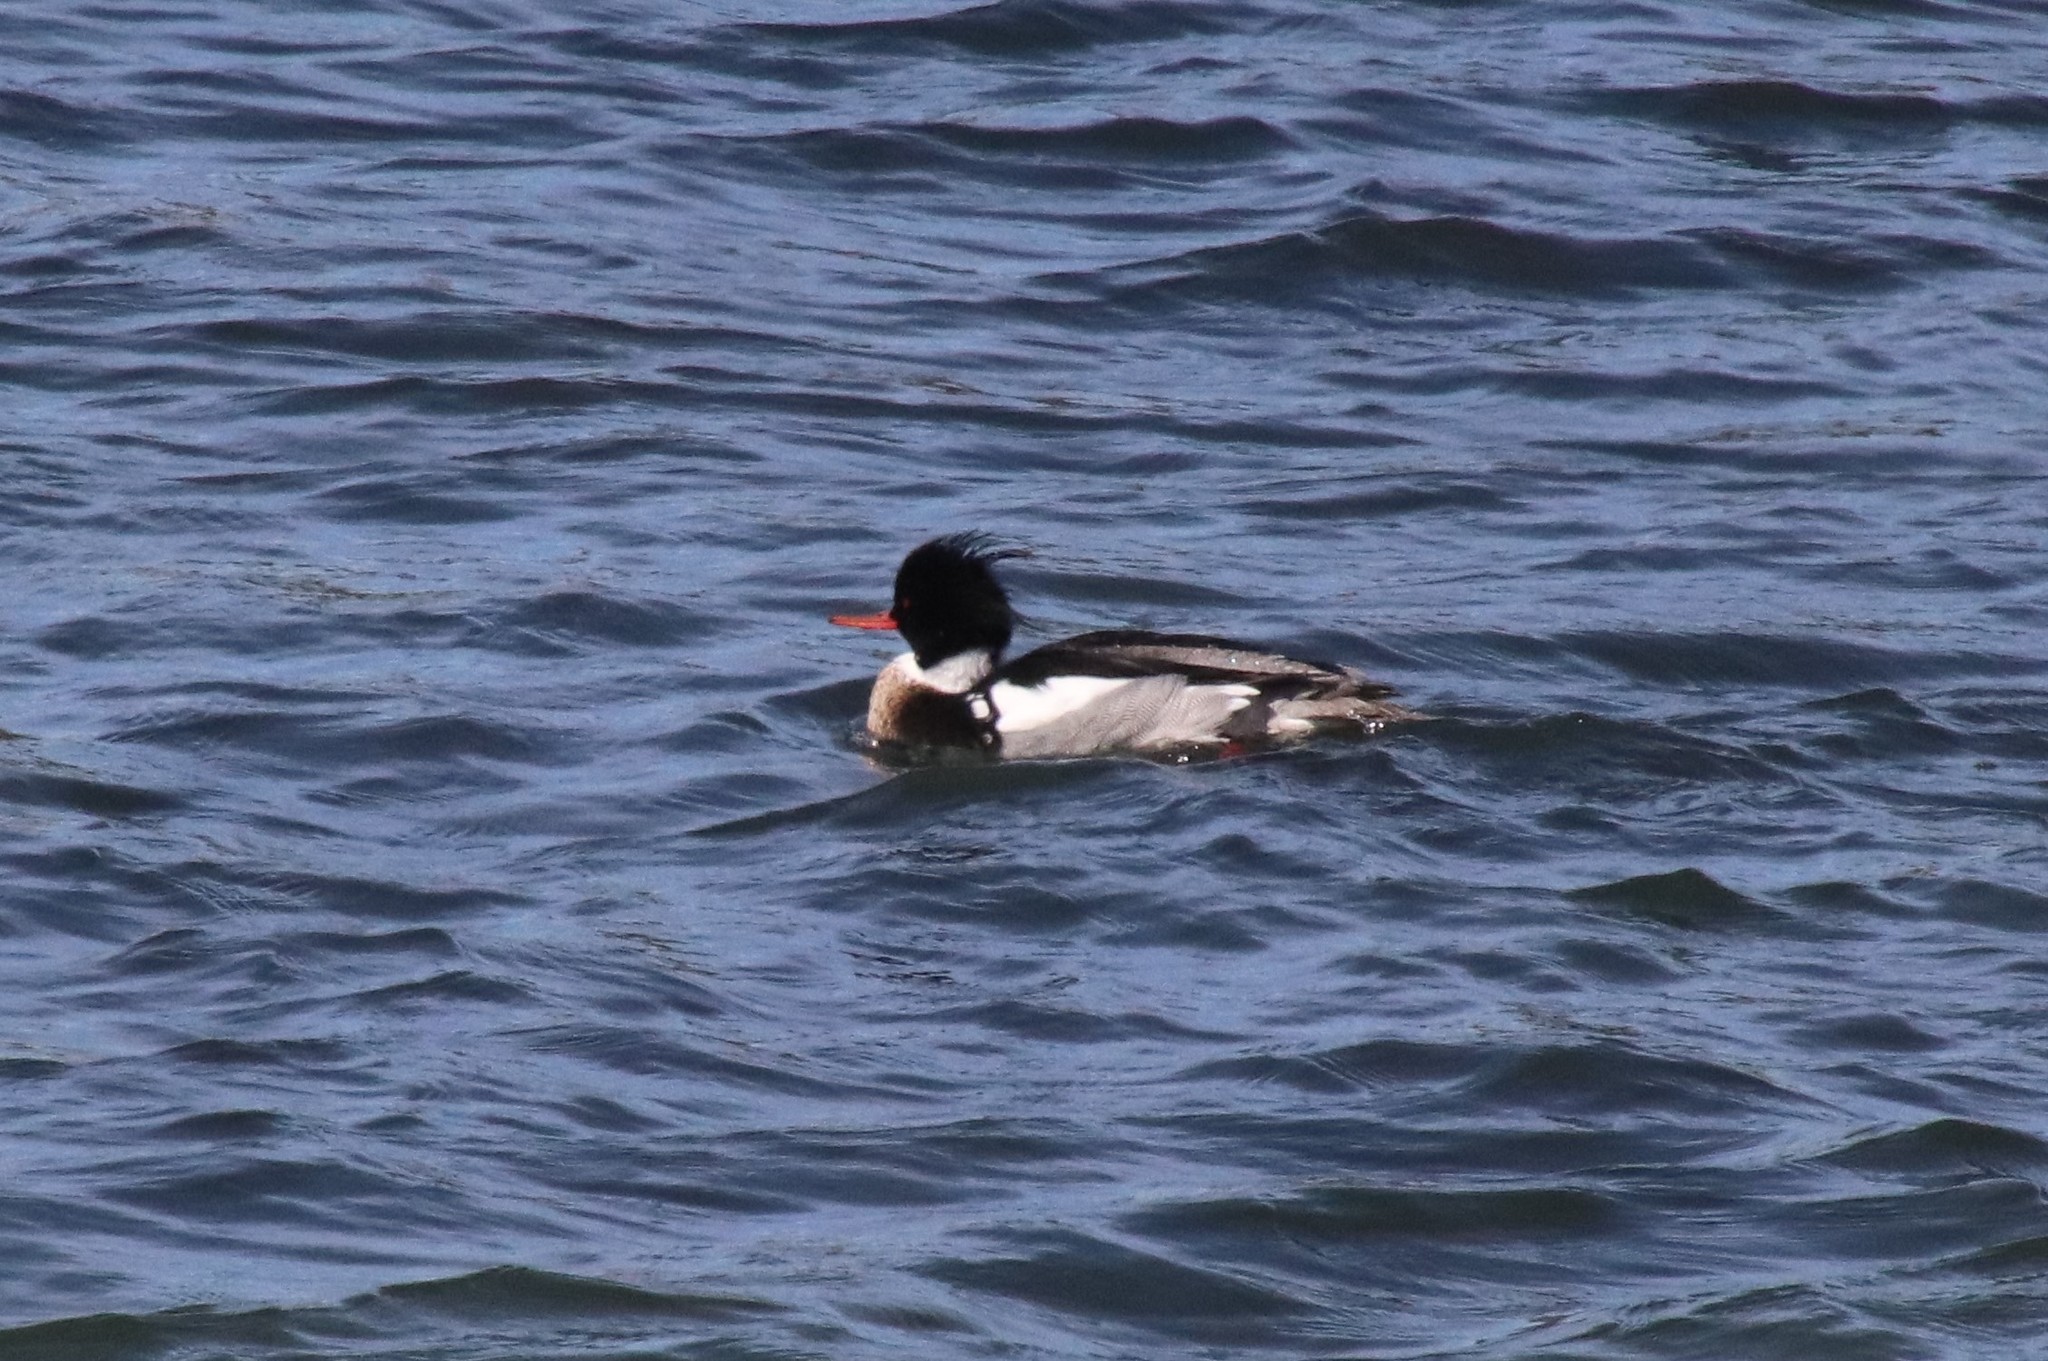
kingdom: Animalia
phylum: Chordata
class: Aves
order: Anseriformes
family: Anatidae
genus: Mergus
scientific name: Mergus serrator
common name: Red-breasted merganser
